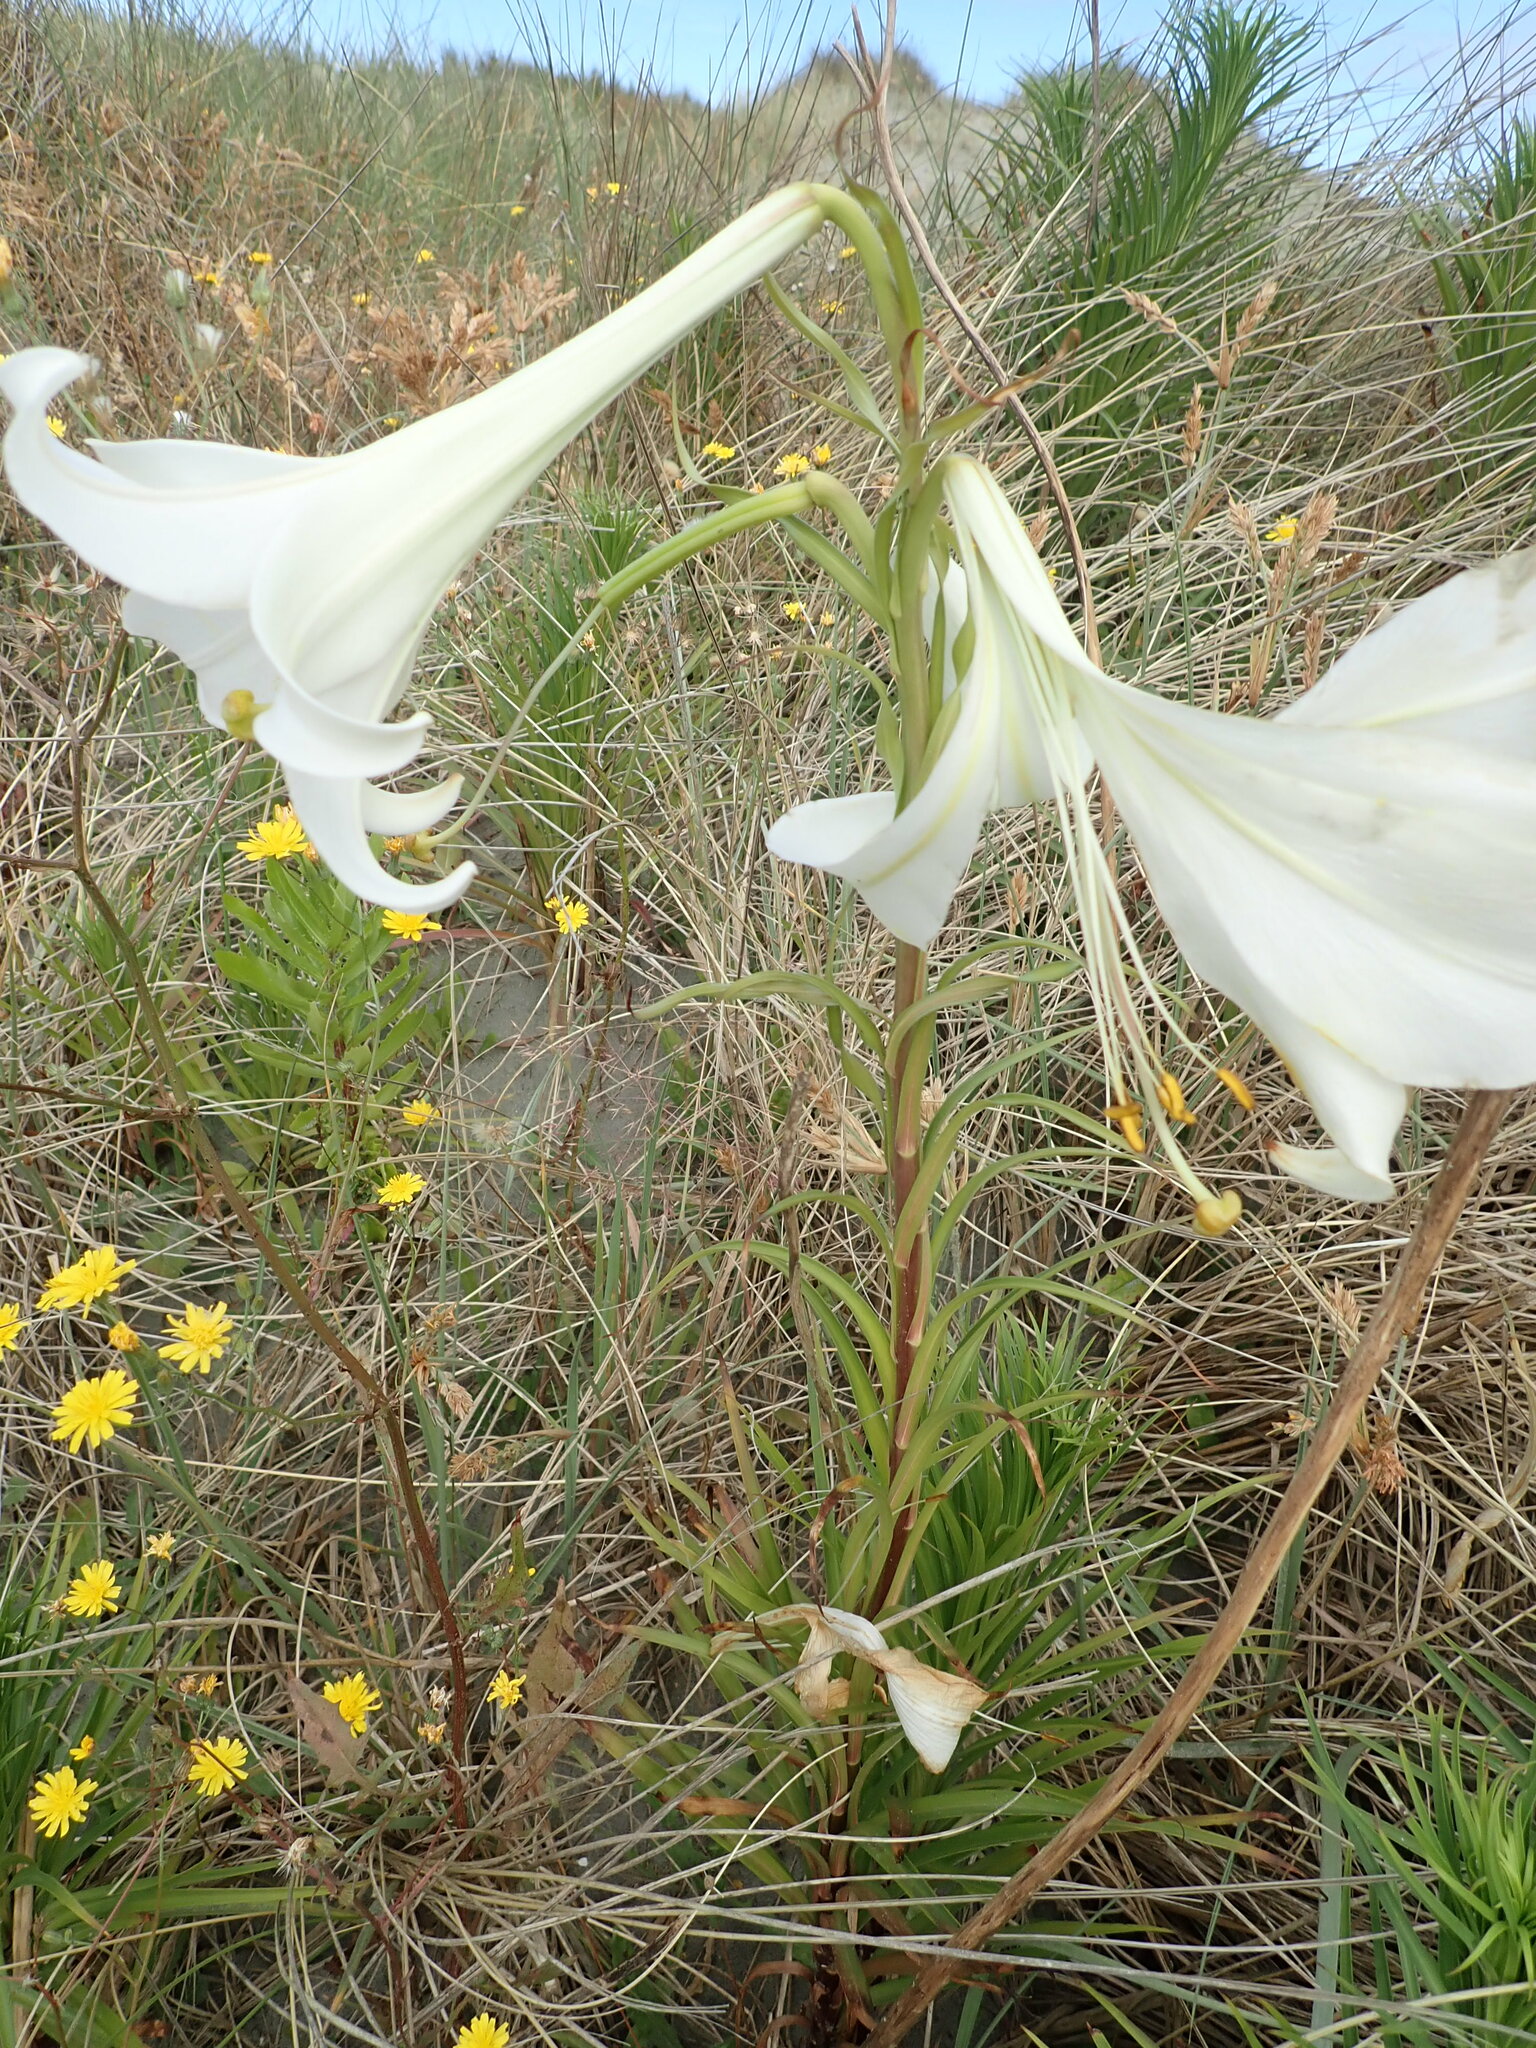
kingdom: Plantae
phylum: Tracheophyta
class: Liliopsida
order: Liliales
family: Liliaceae
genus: Lilium
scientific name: Lilium formosanum
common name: Formosa lily
